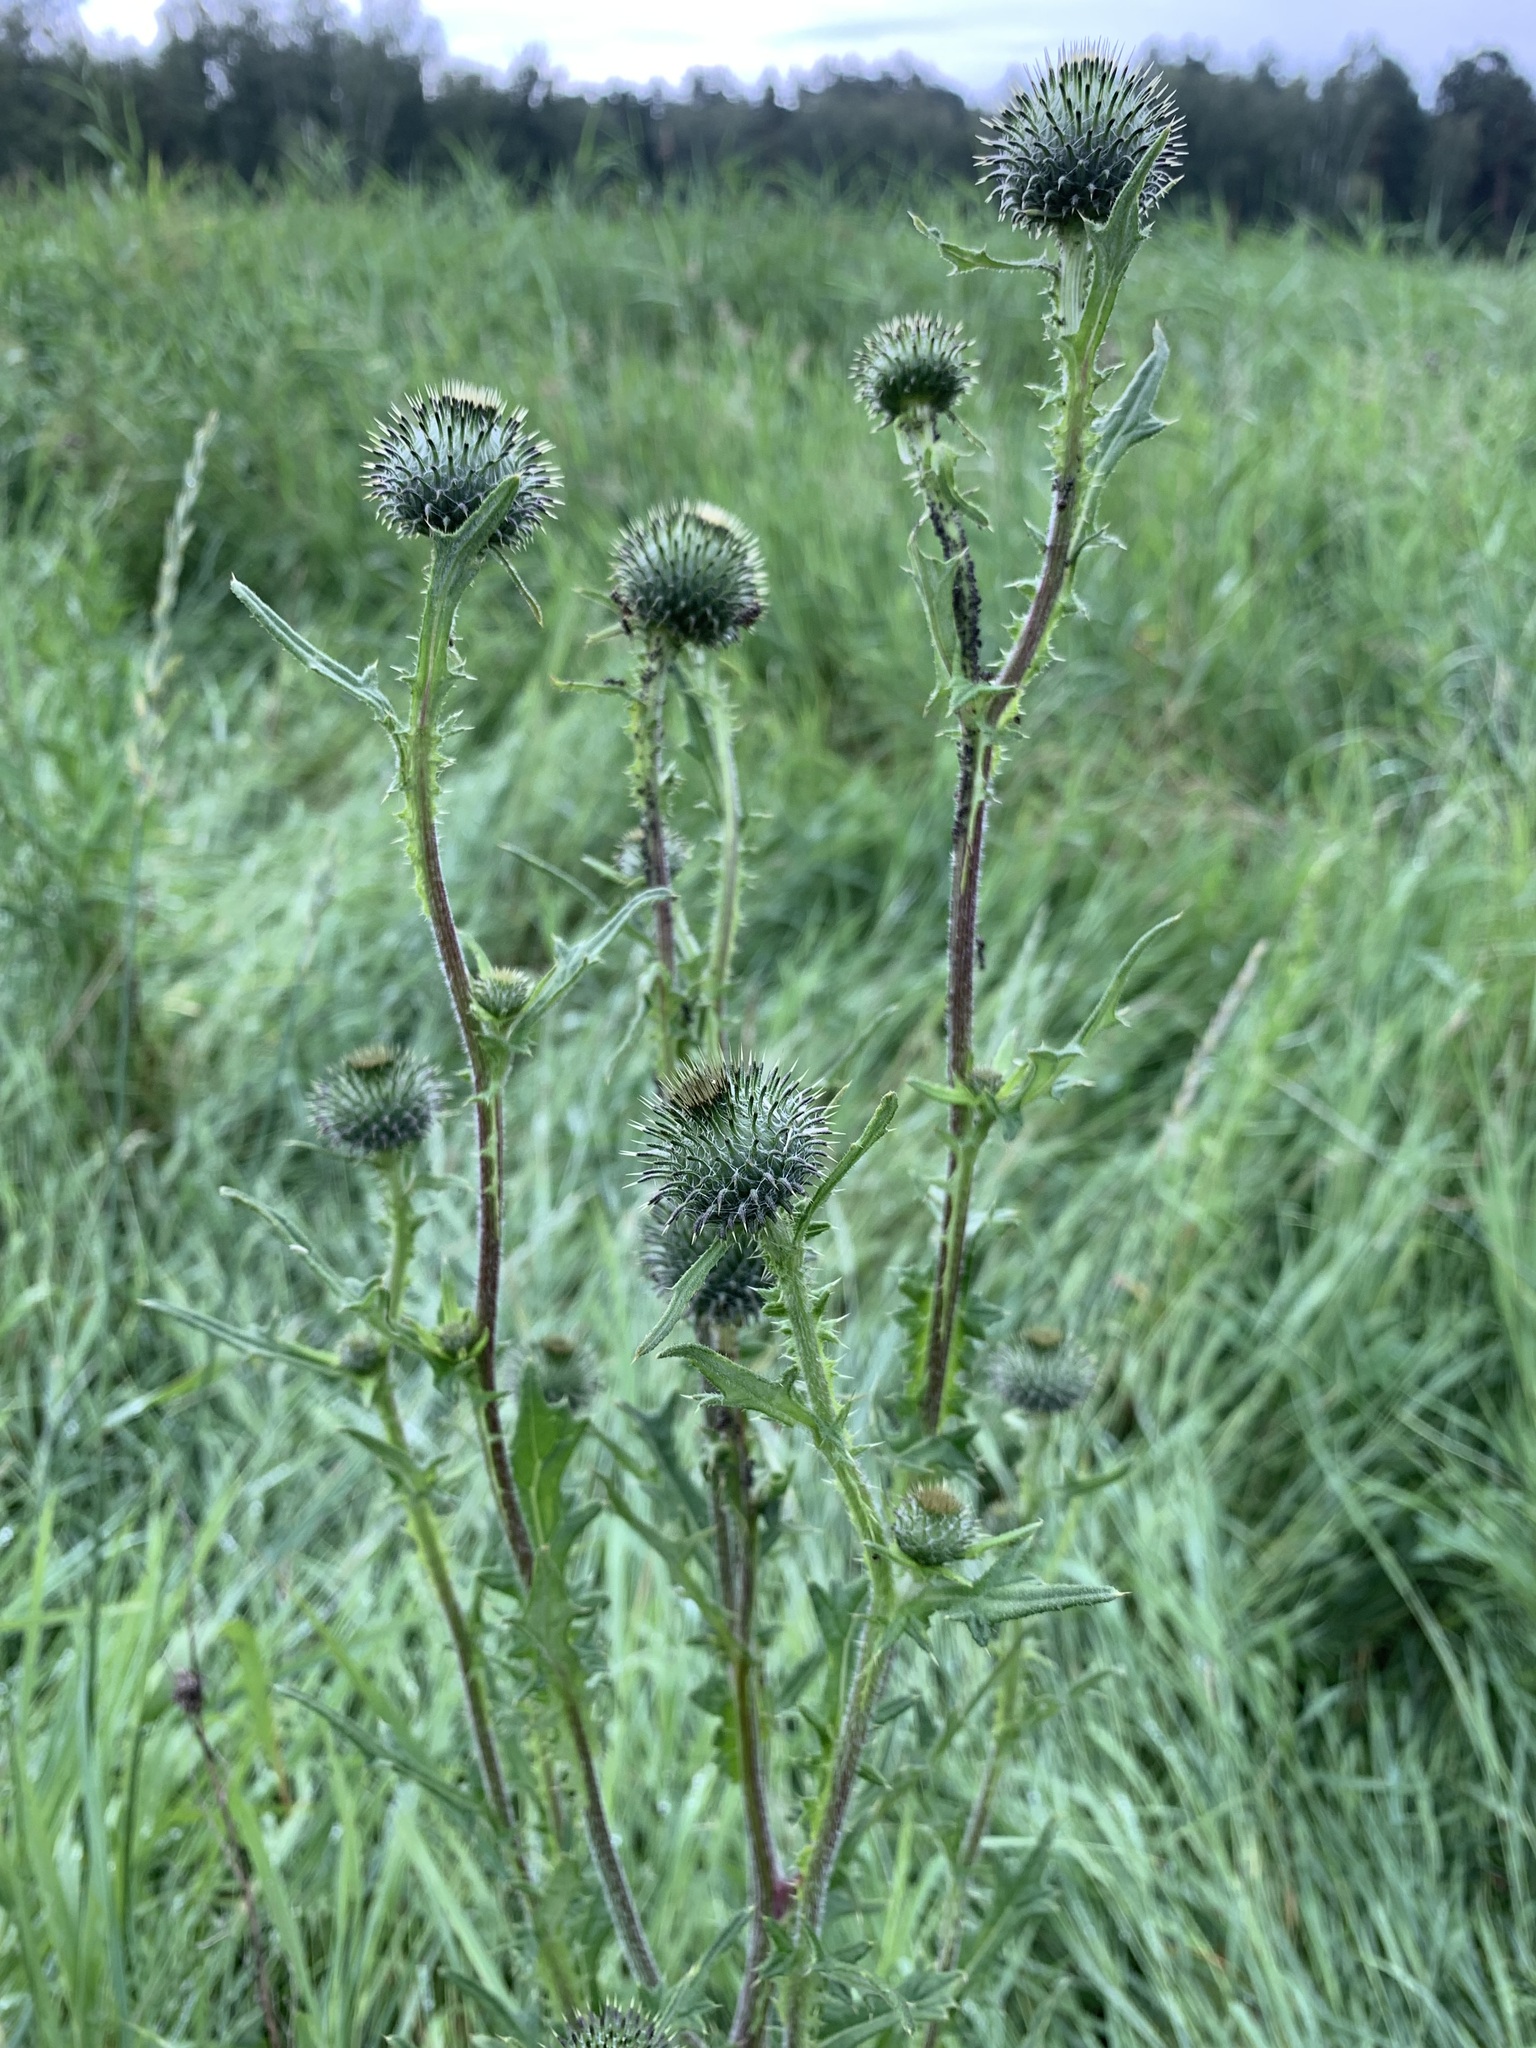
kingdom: Plantae
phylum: Tracheophyta
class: Magnoliopsida
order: Asterales
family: Asteraceae
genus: Cirsium
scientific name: Cirsium vulgare
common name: Bull thistle
